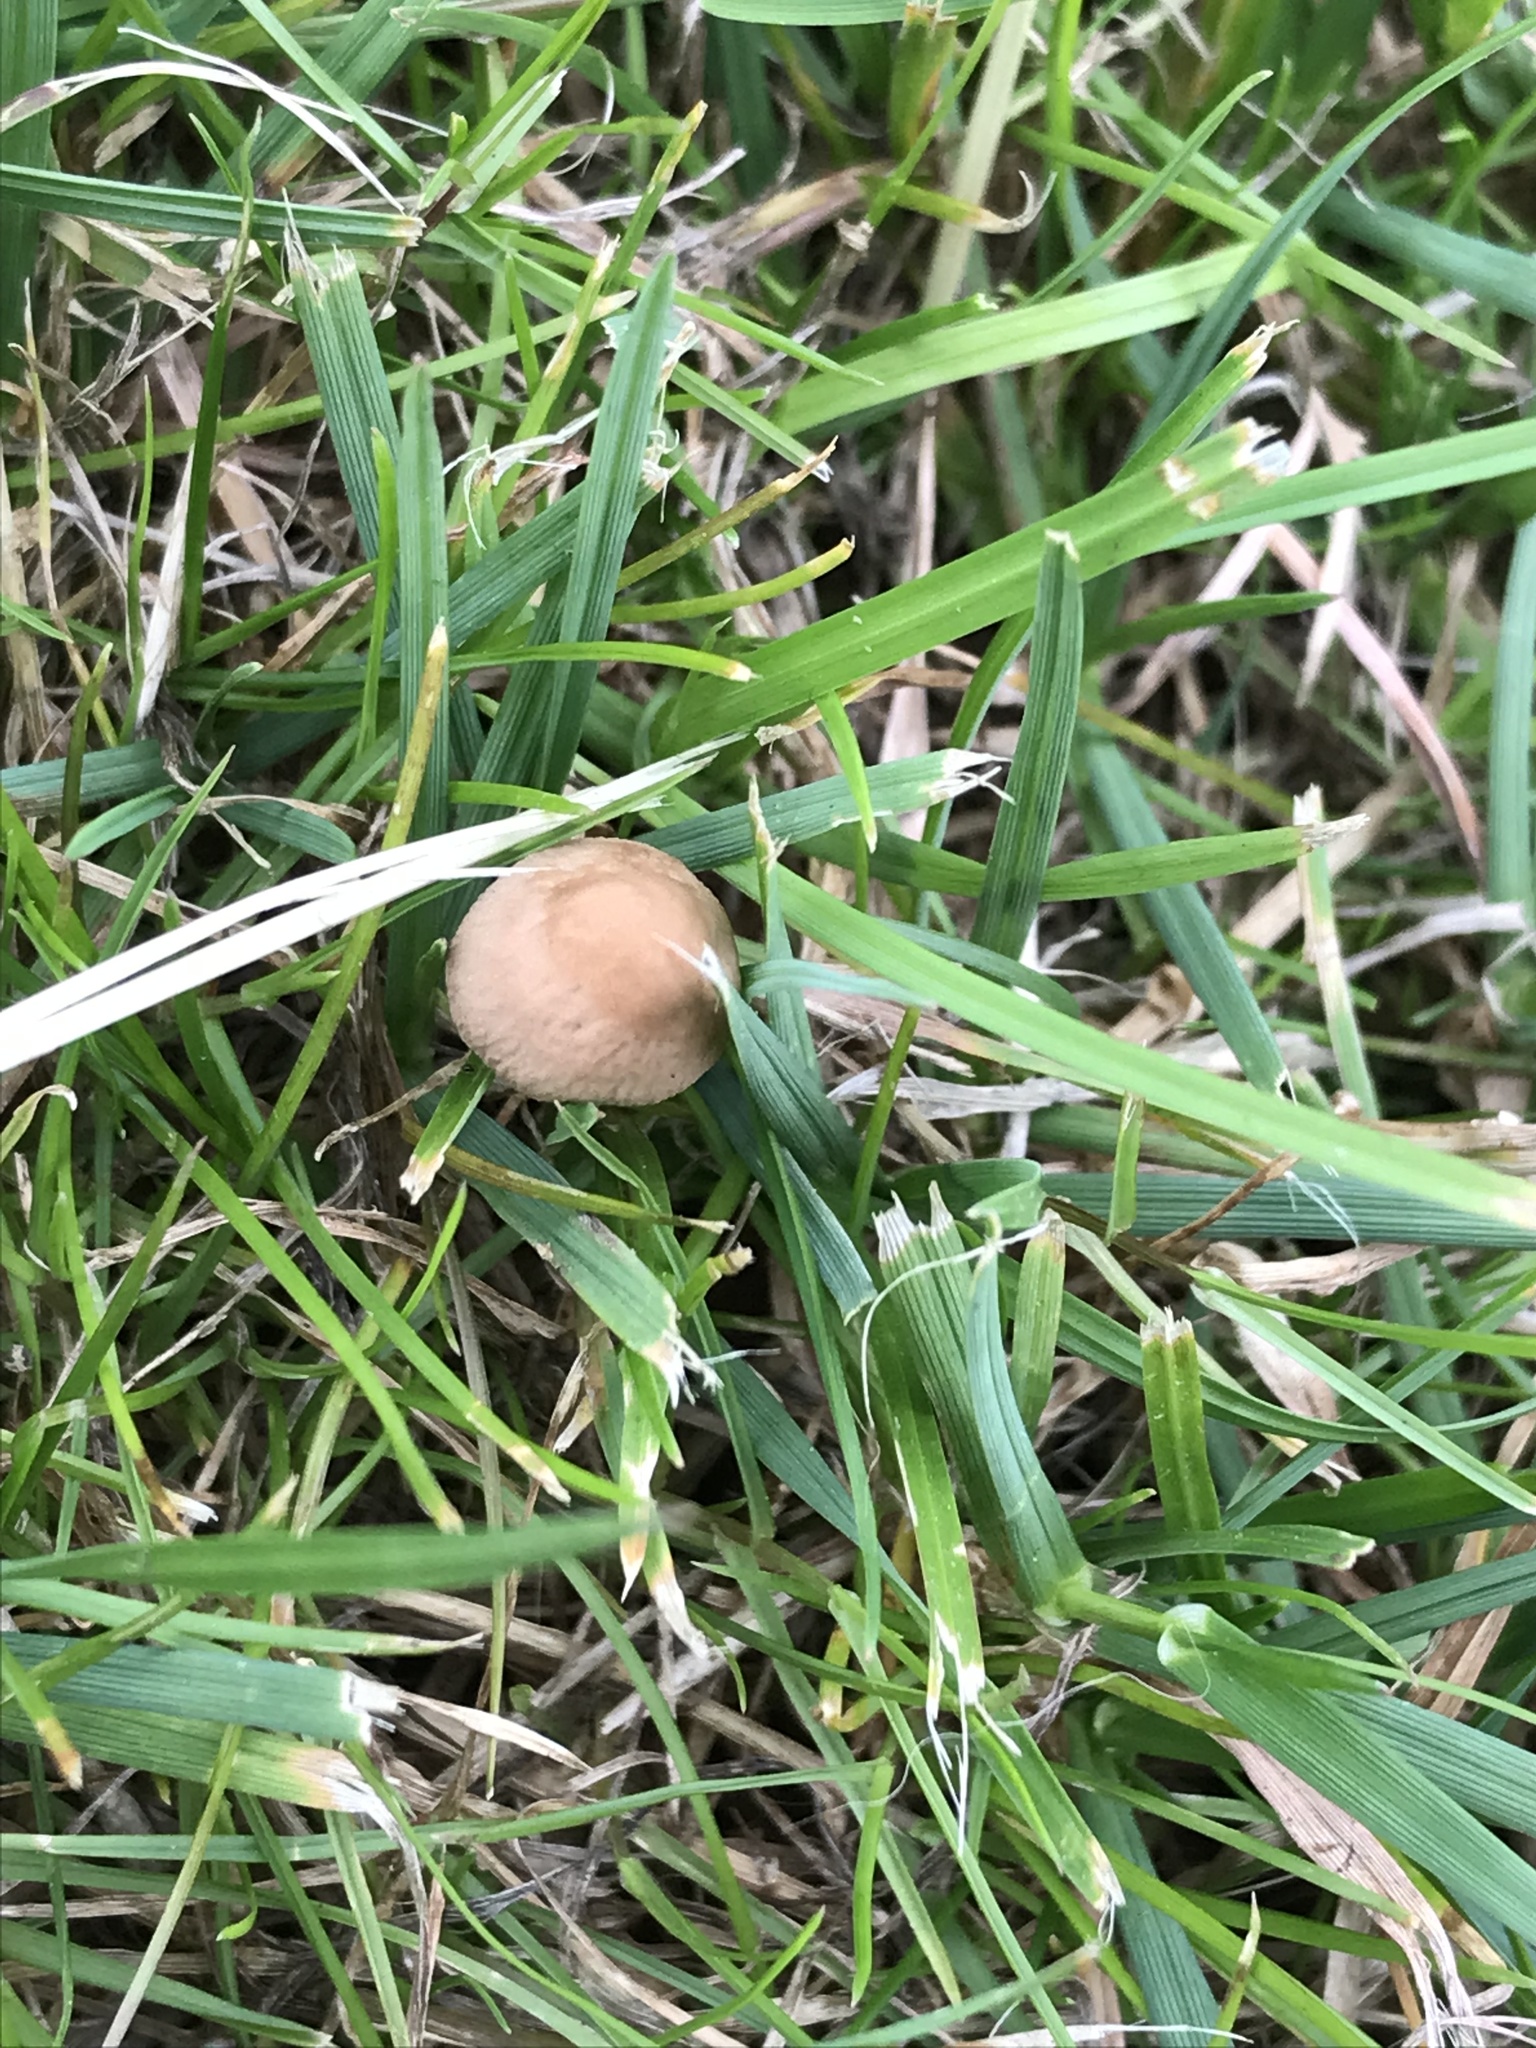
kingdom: Fungi
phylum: Basidiomycota
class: Agaricomycetes
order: Agaricales
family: Bolbitiaceae
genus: Panaeolina
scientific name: Panaeolina foenisecii
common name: Brown hay cap
